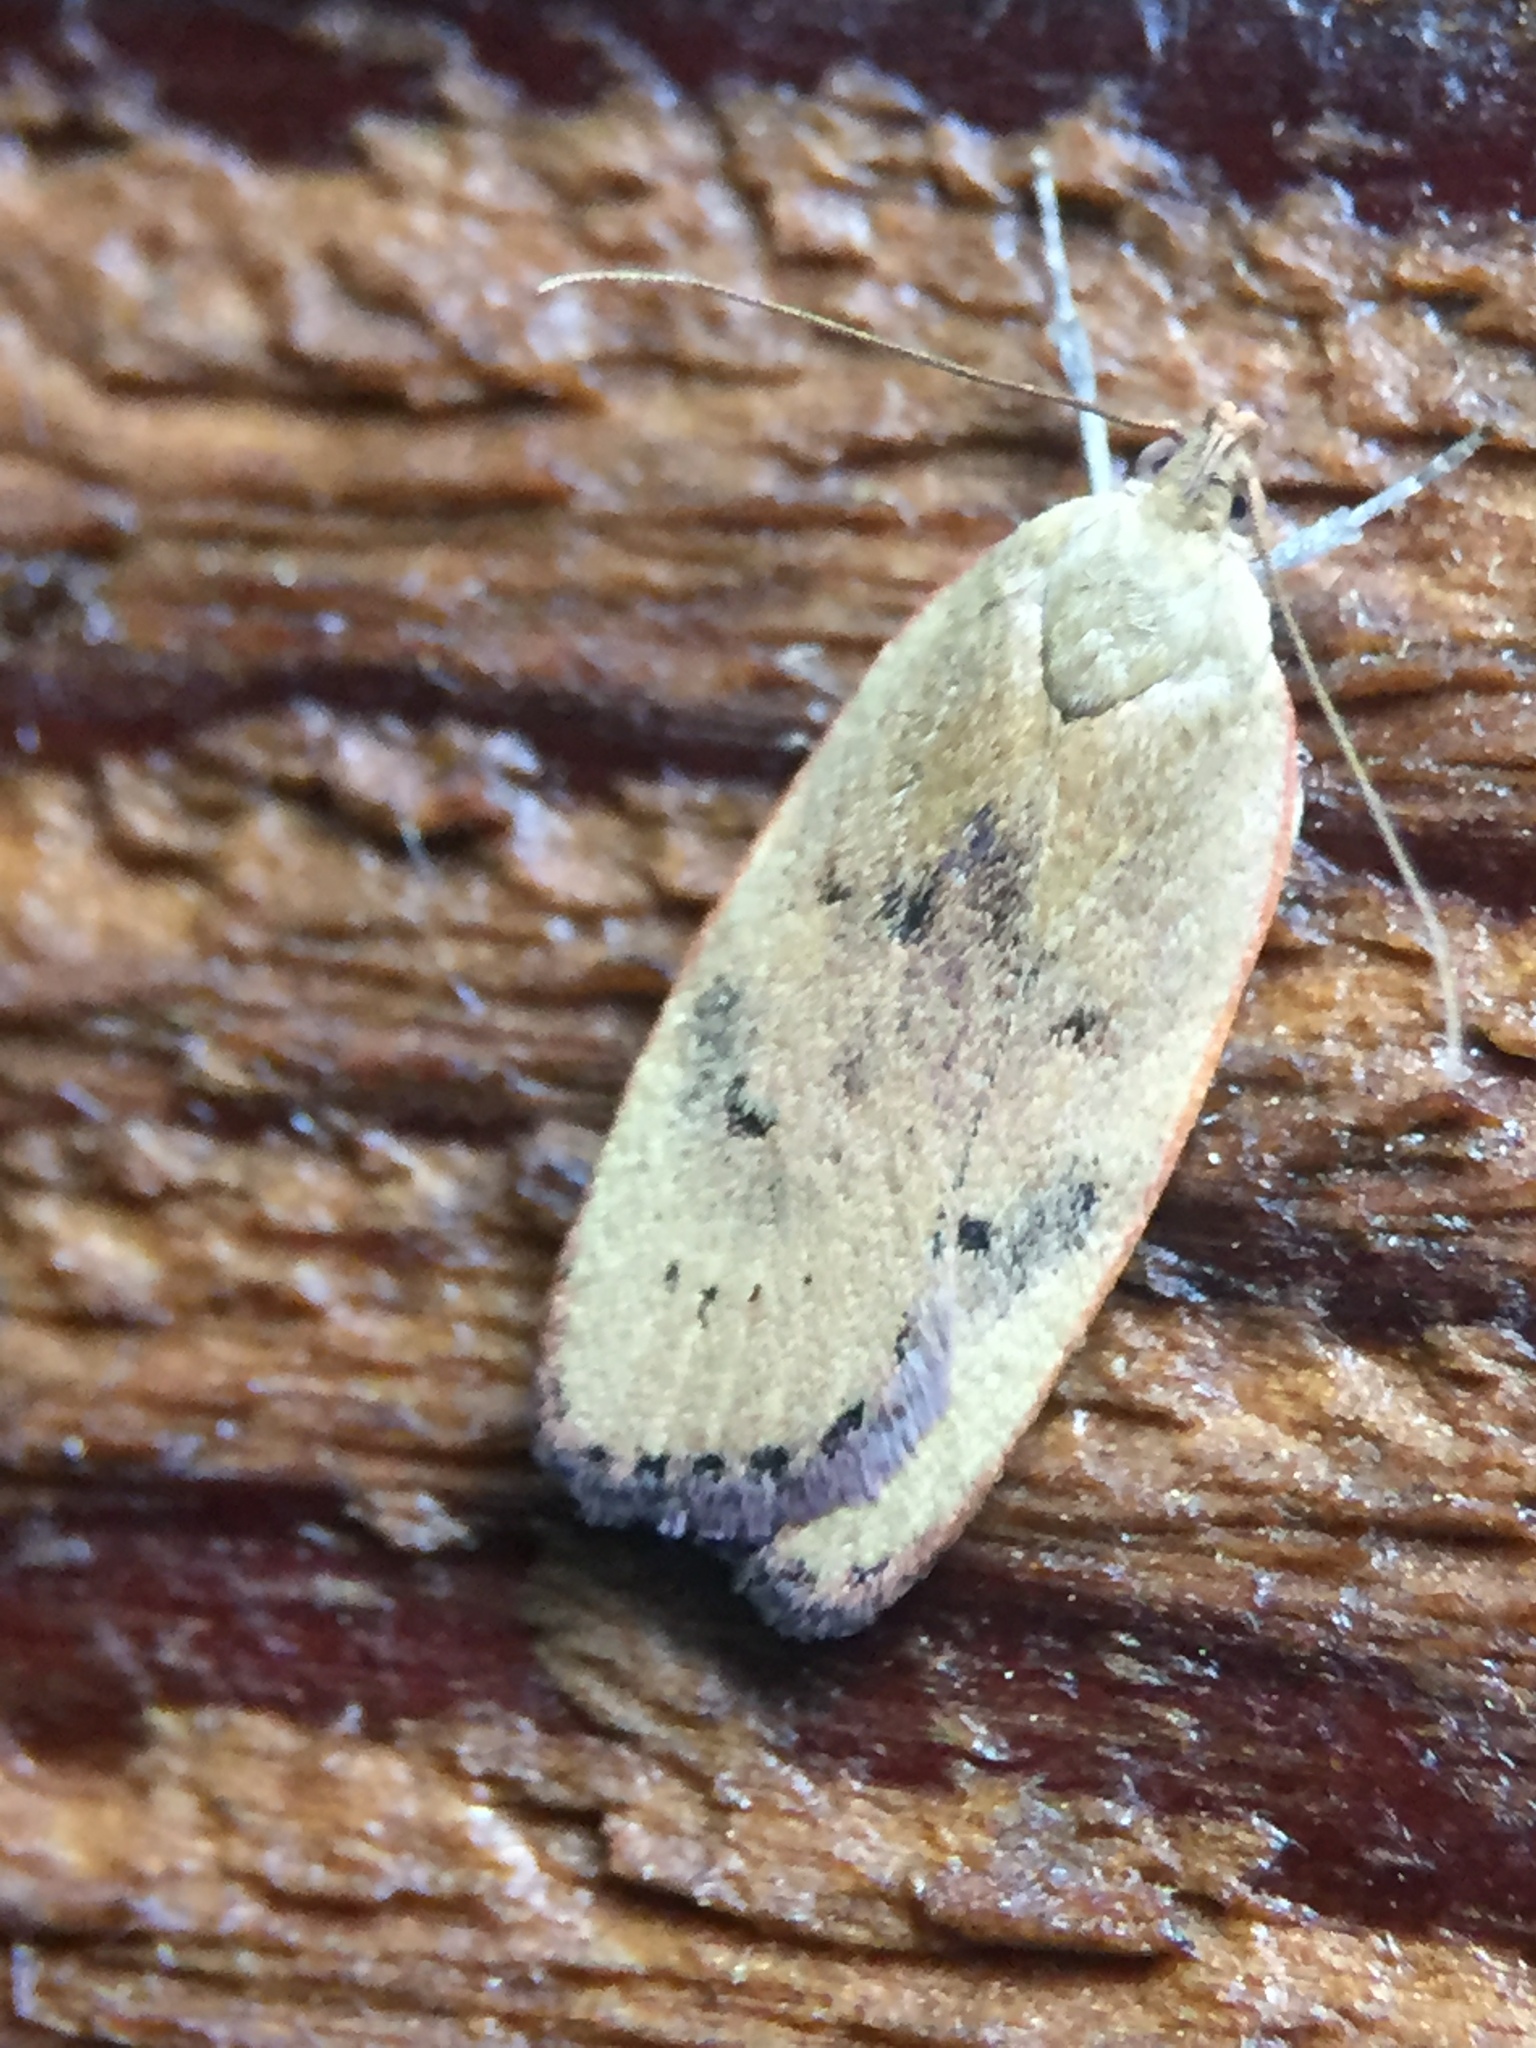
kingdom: Animalia
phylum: Arthropoda
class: Insecta
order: Lepidoptera
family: Depressariidae
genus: Phaeosaces
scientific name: Phaeosaces coarctatella
